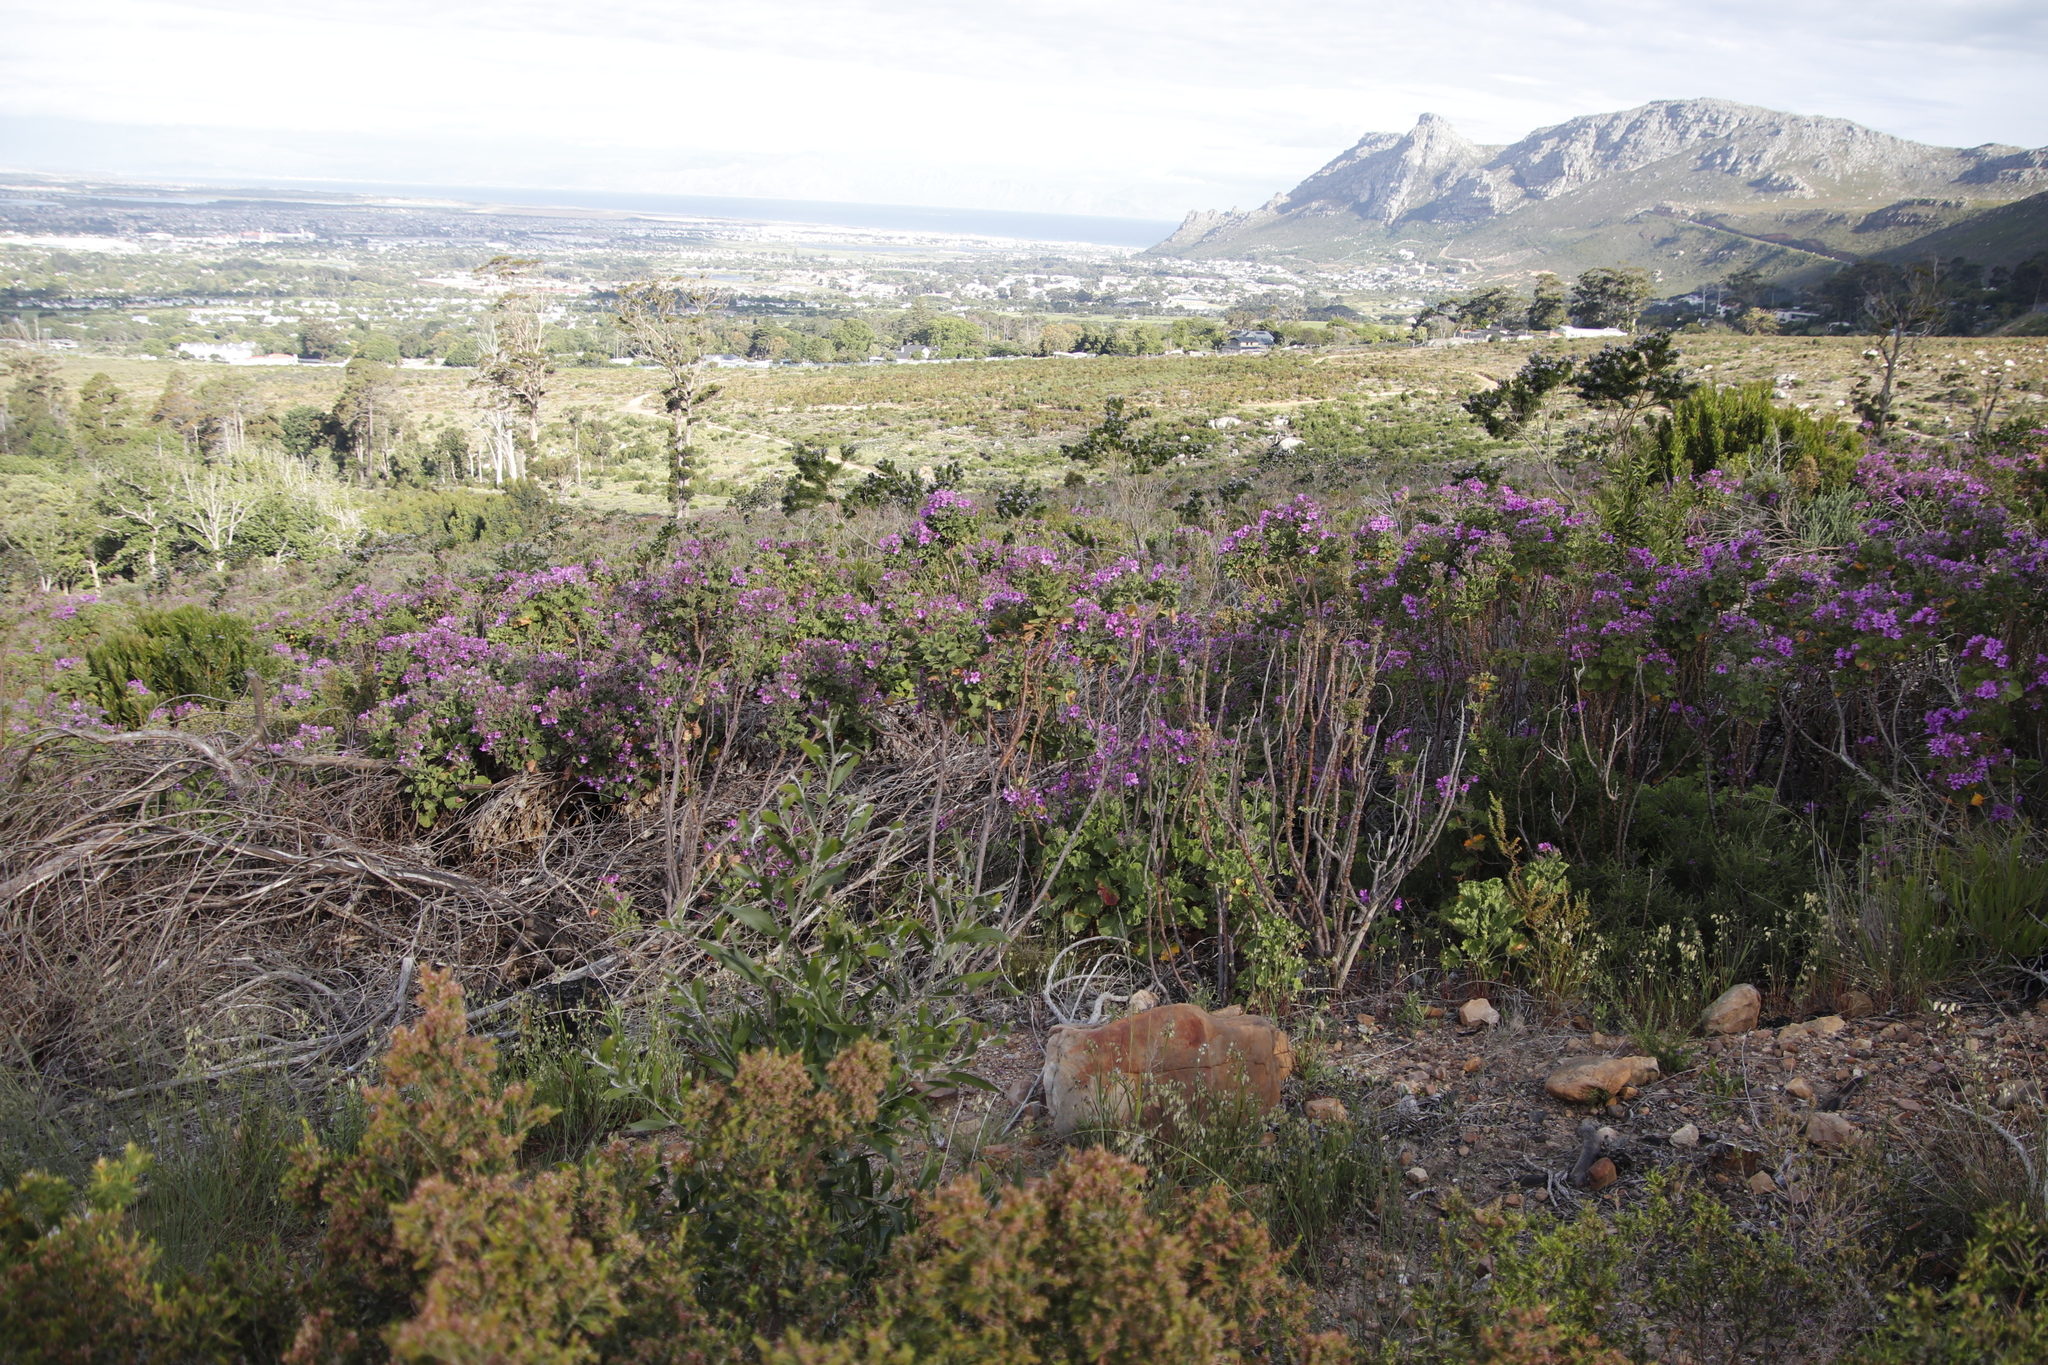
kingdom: Plantae
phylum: Tracheophyta
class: Magnoliopsida
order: Geraniales
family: Geraniaceae
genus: Pelargonium
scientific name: Pelargonium cucullatum
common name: Tree pelargonium
